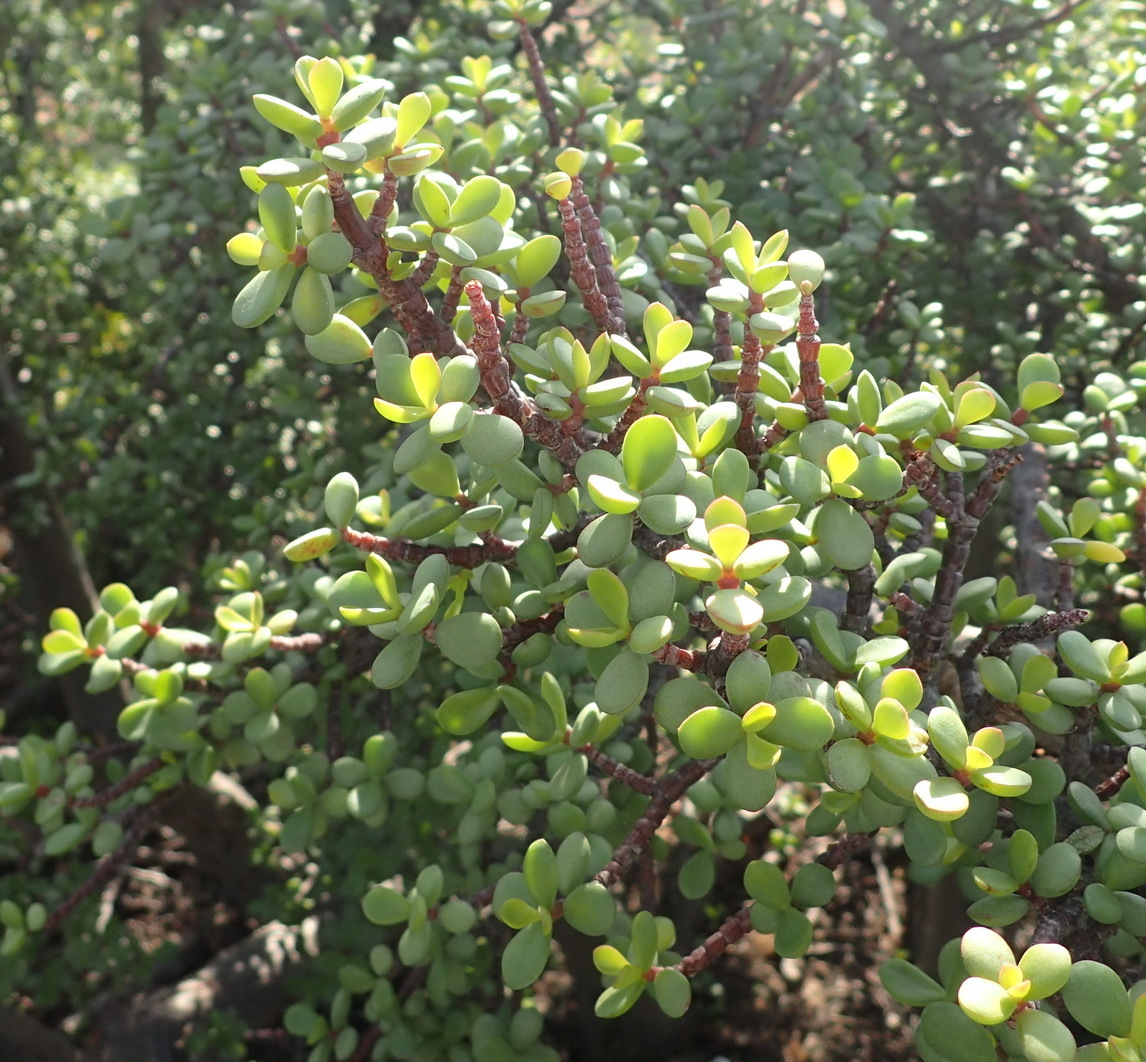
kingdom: Plantae
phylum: Tracheophyta
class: Magnoliopsida
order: Caryophyllales
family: Didiereaceae
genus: Portulacaria
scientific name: Portulacaria afra
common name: Elephant-bush
